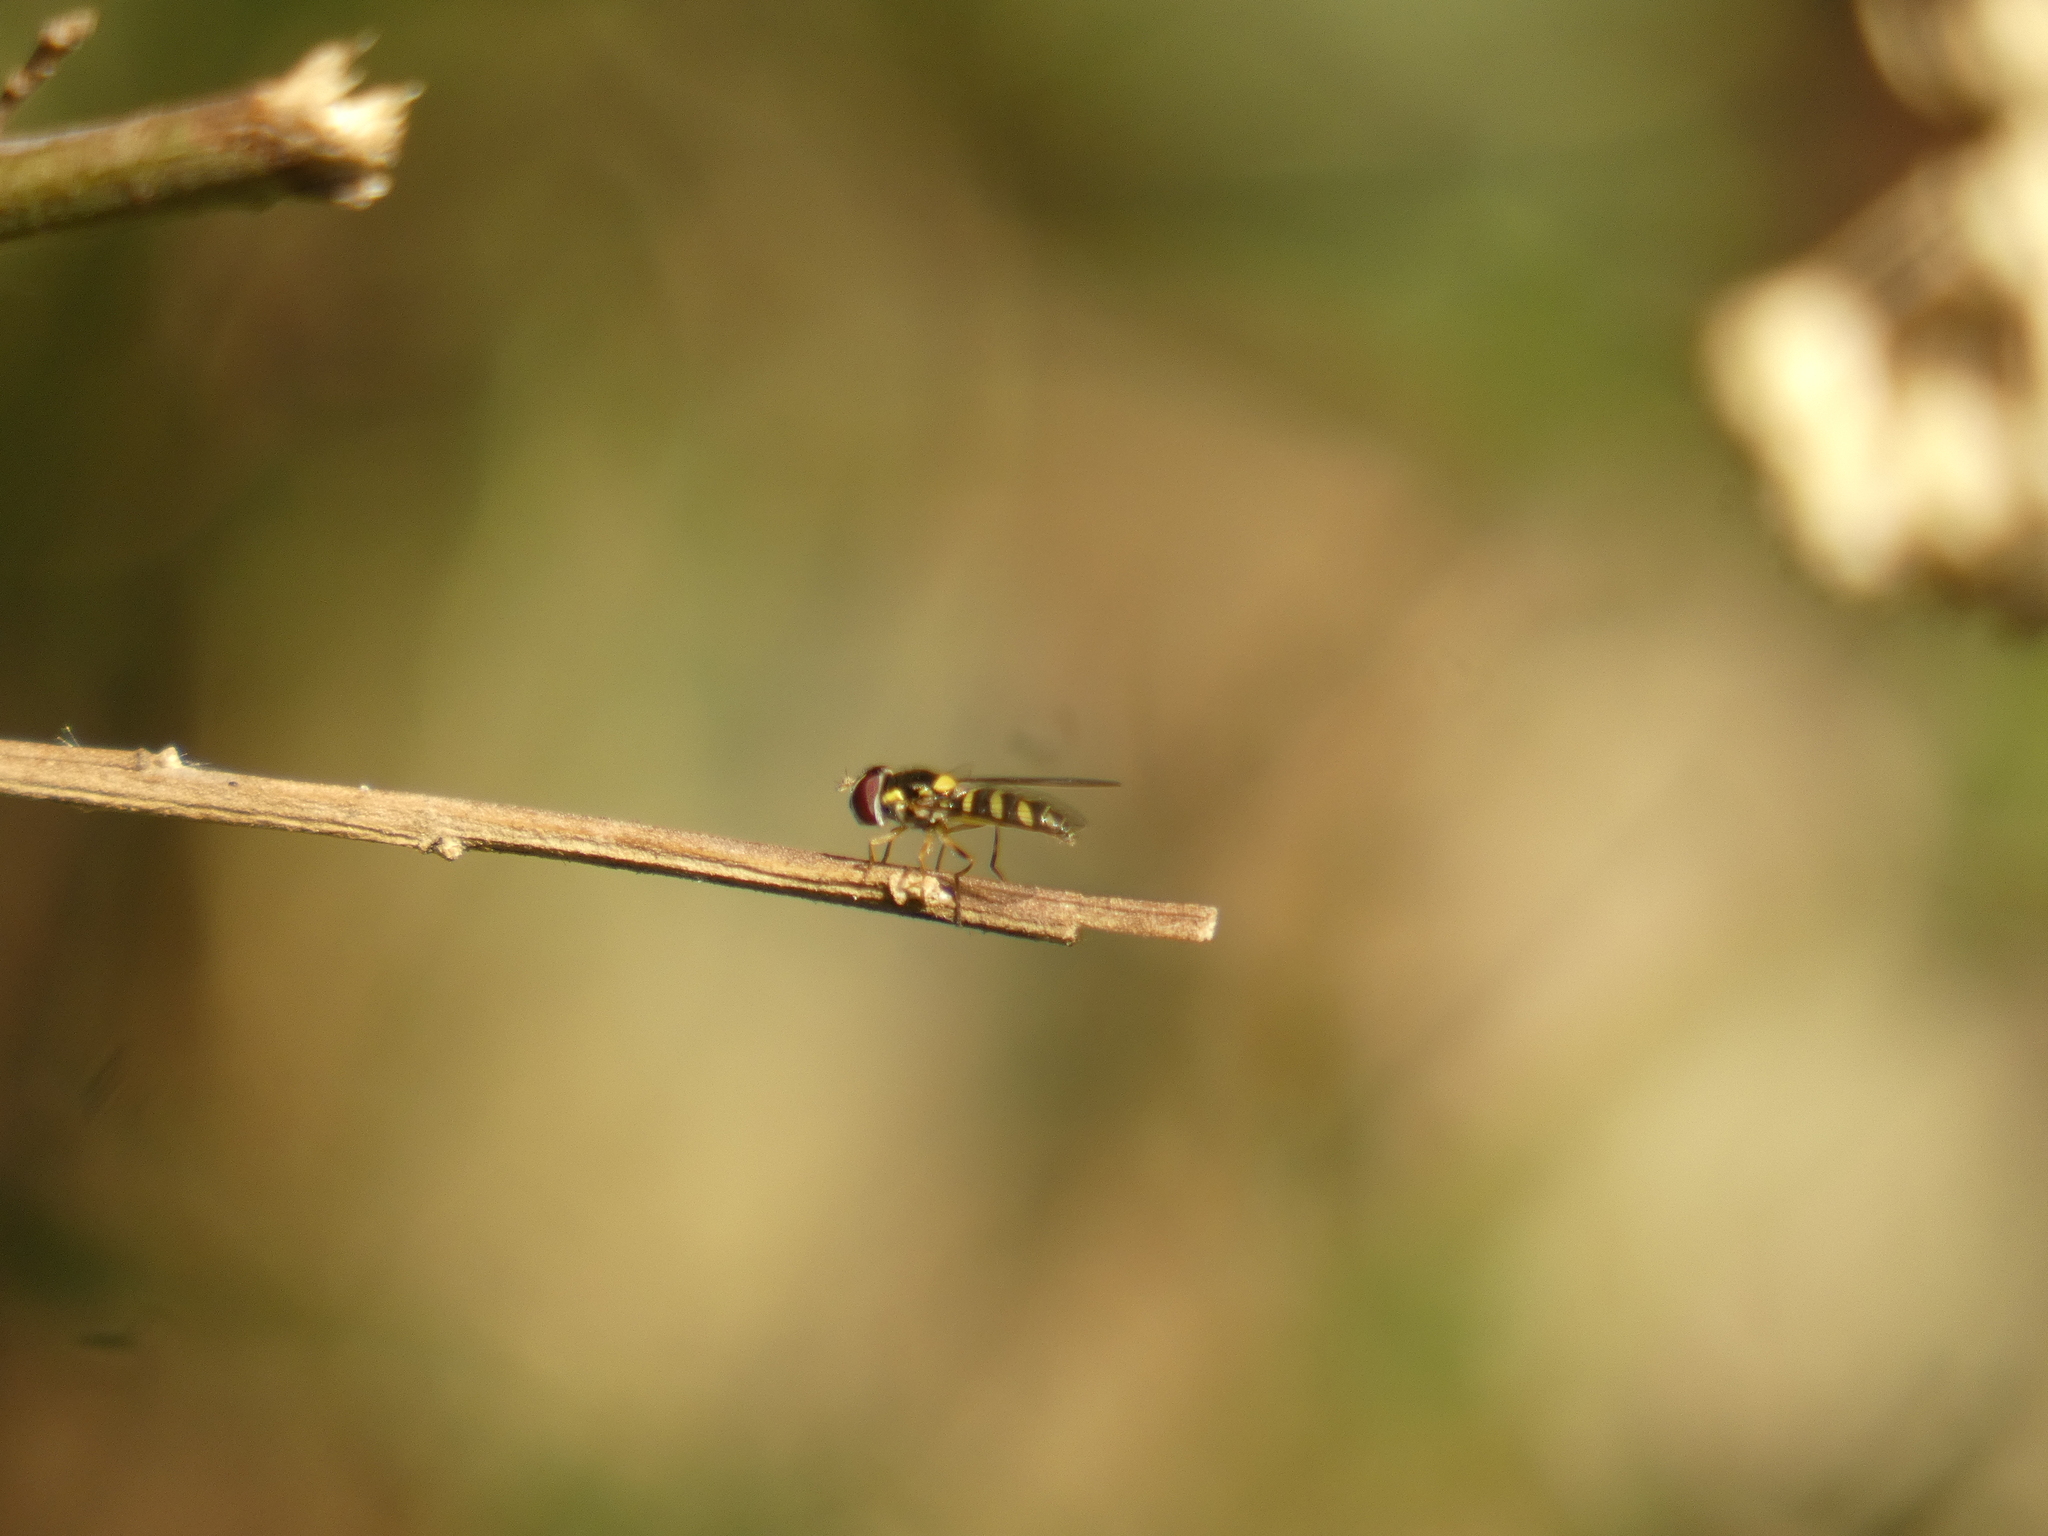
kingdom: Animalia
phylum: Arthropoda
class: Insecta
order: Diptera
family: Syrphidae
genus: Allograpta
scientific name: Allograpta hortensis
